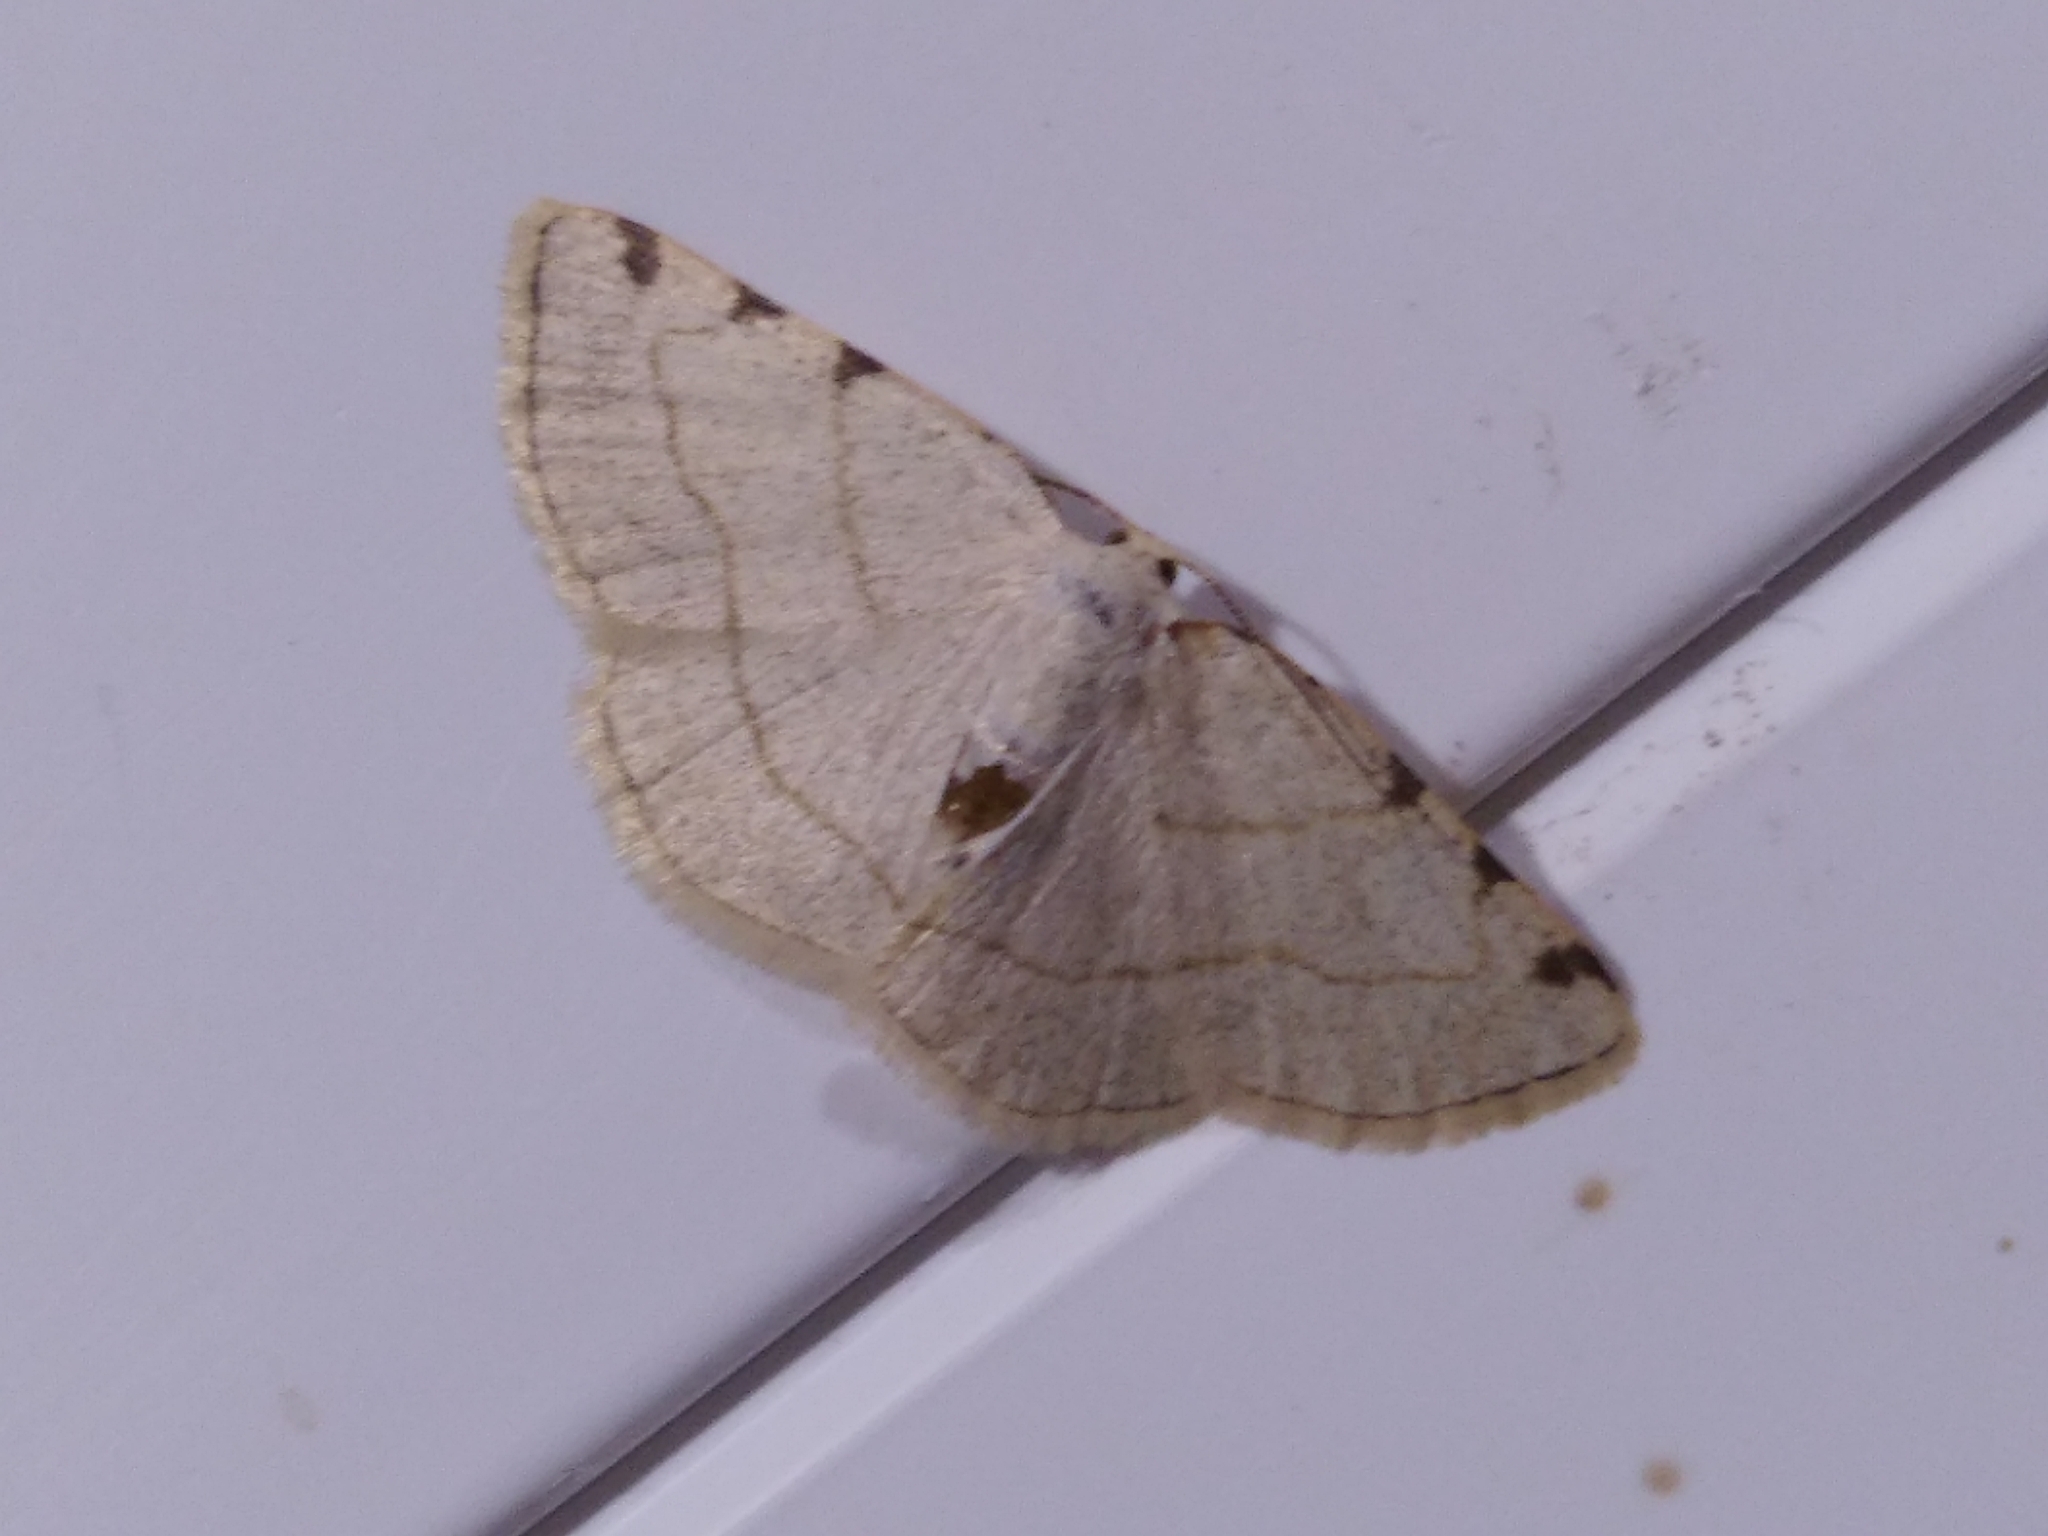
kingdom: Animalia
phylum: Arthropoda
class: Insecta
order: Lepidoptera
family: Geometridae
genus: Stegania
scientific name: Stegania trimaculata
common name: Dorset cream wave
